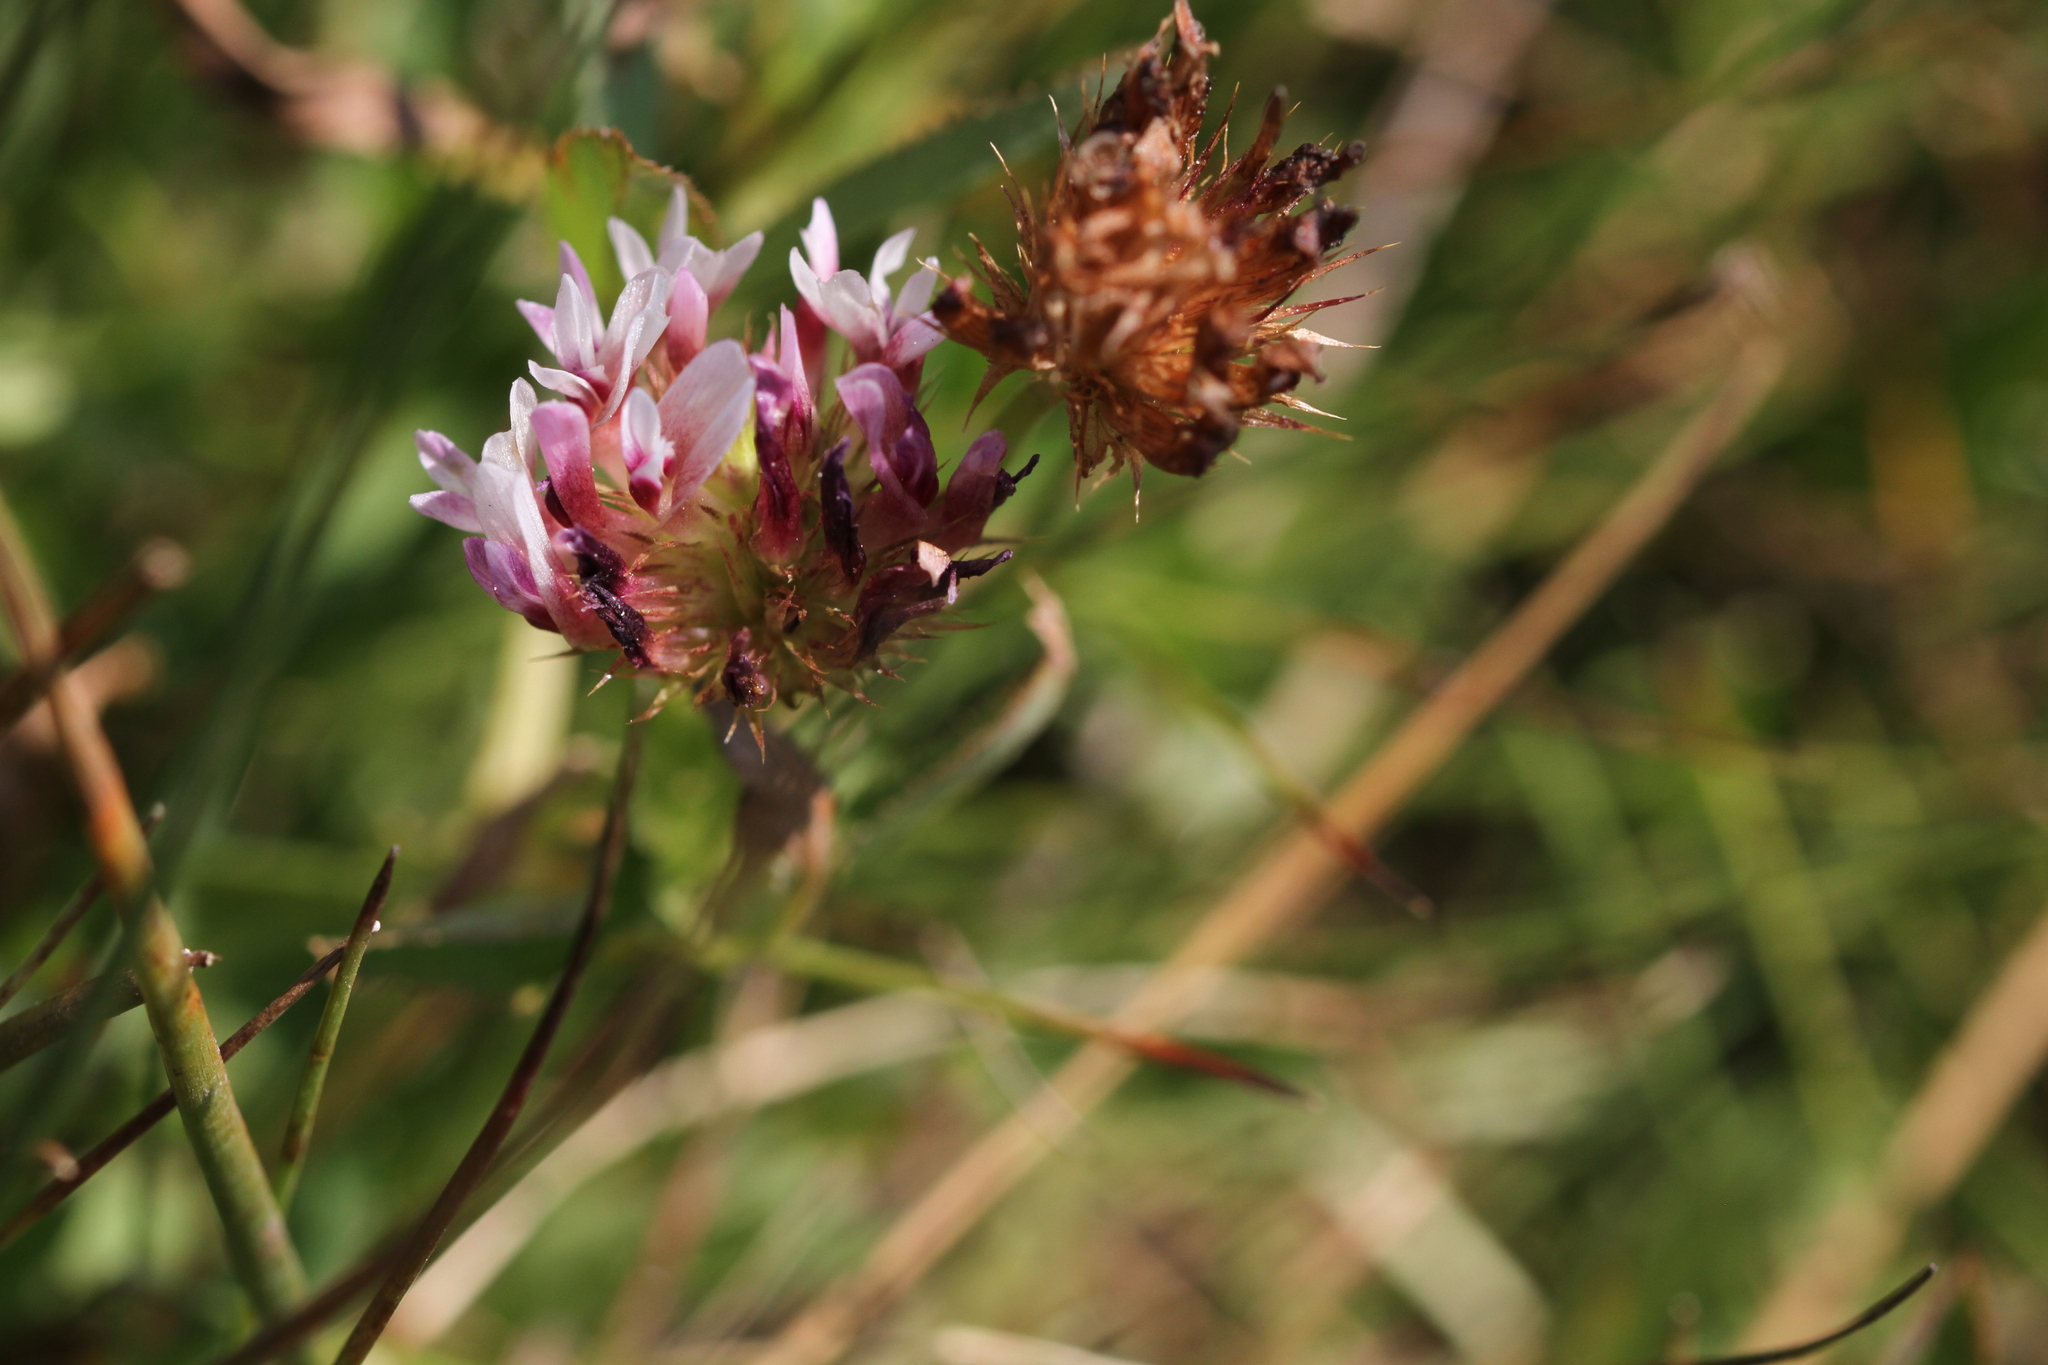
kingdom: Plantae
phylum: Tracheophyta
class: Magnoliopsida
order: Fabales
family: Fabaceae
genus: Trifolium
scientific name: Trifolium wormskioldii
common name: Springbank clover
